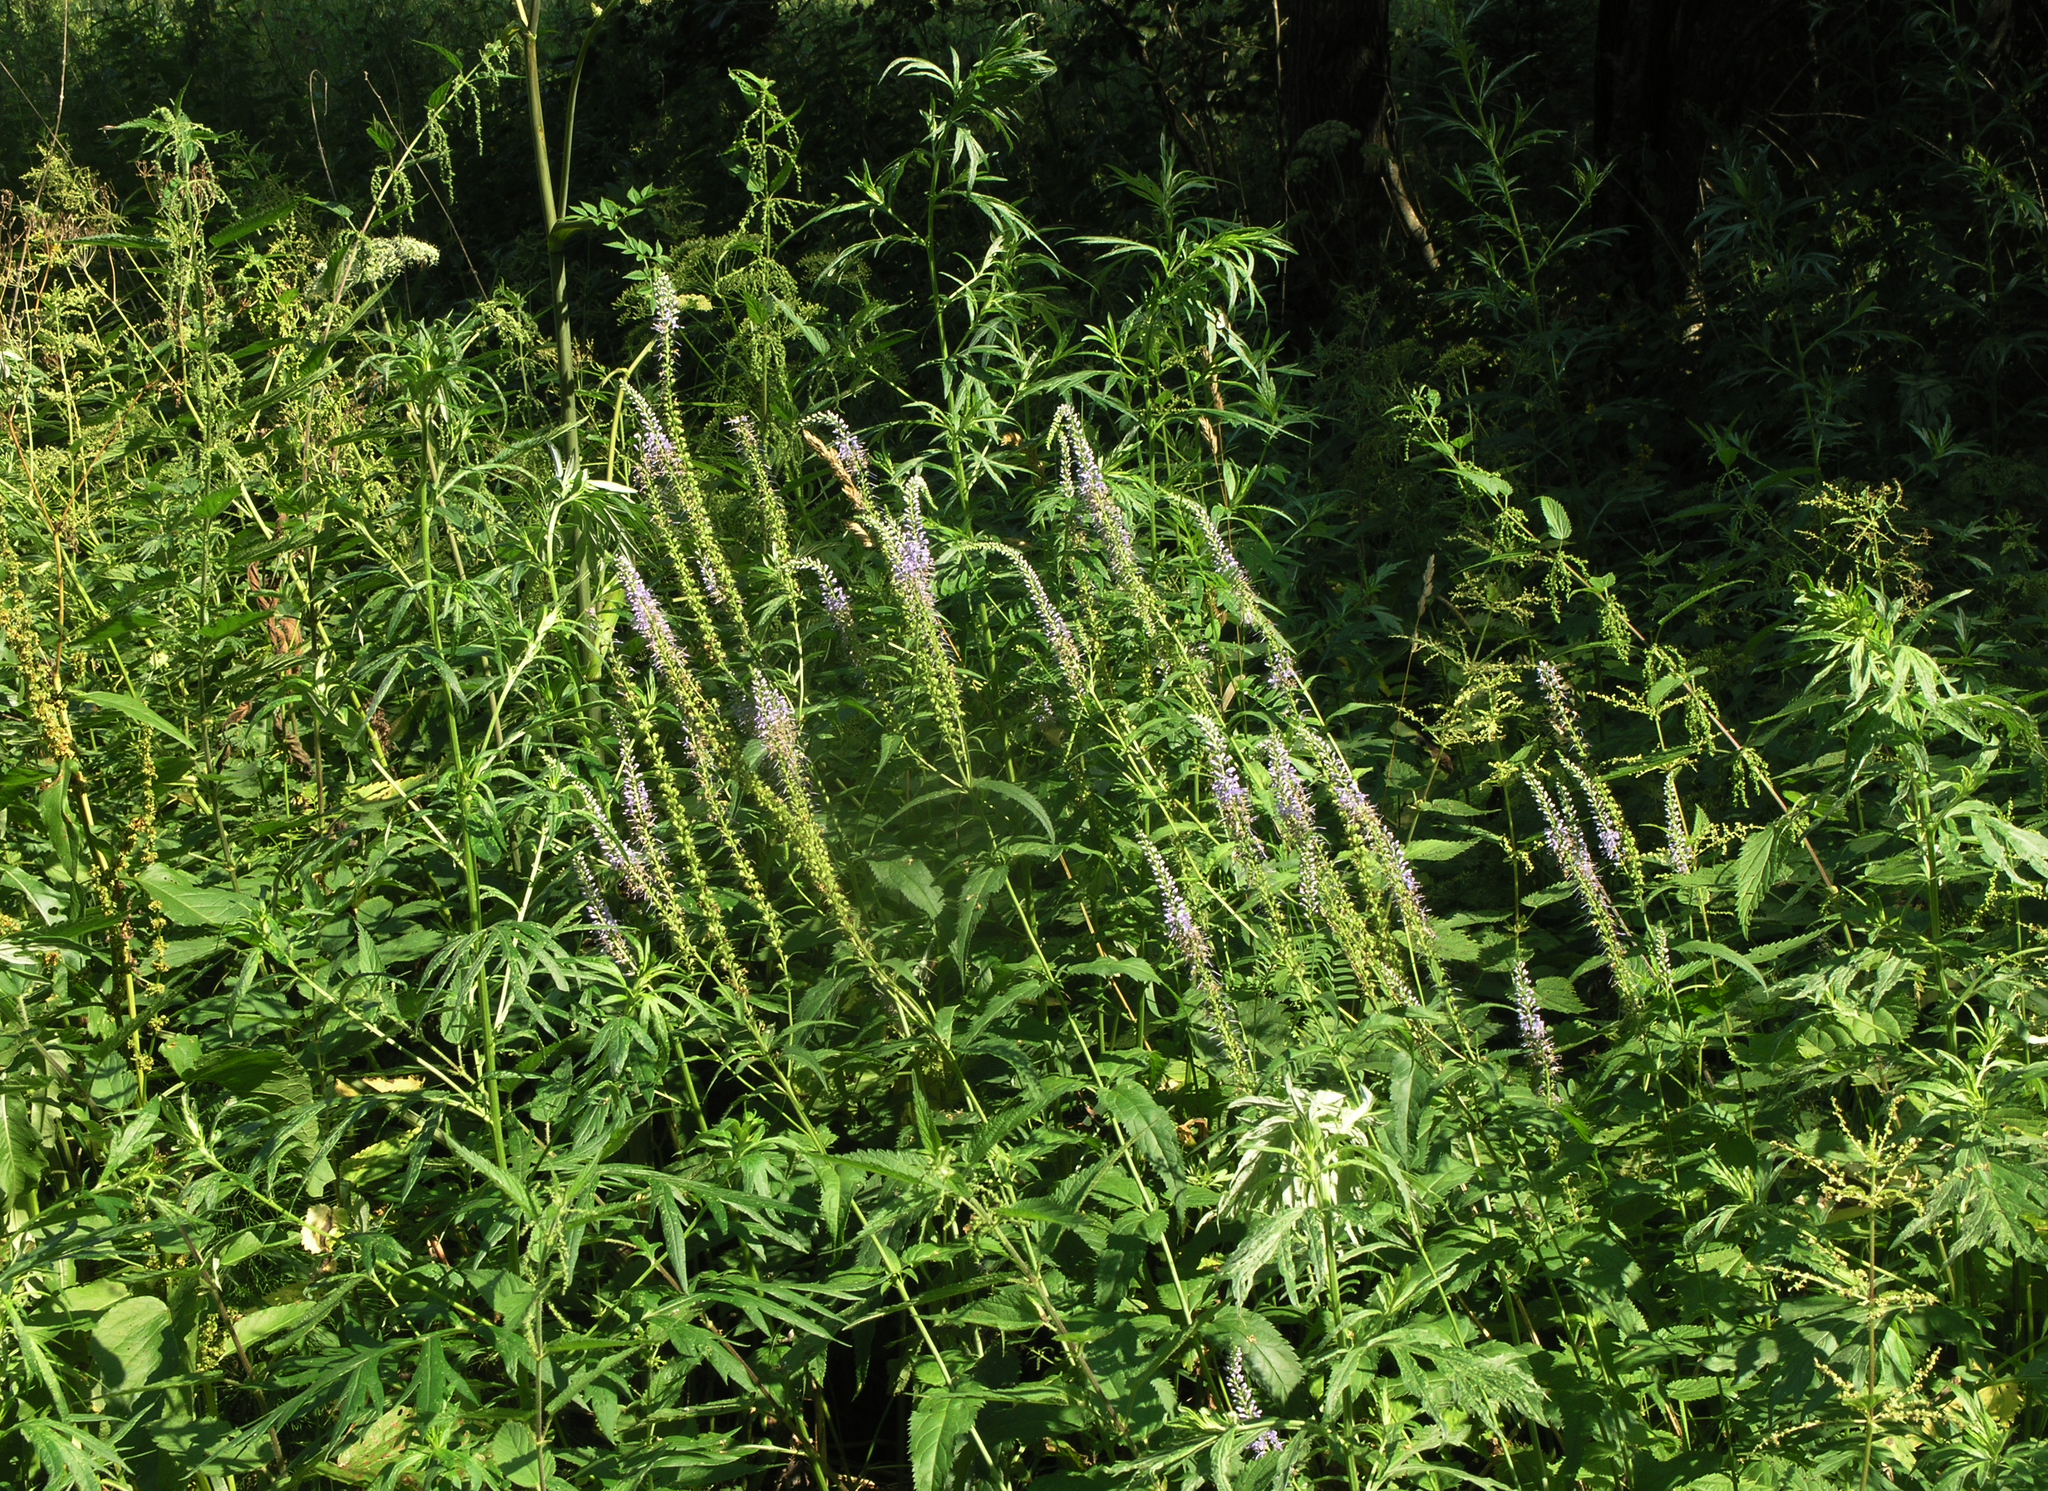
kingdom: Plantae
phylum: Tracheophyta
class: Magnoliopsida
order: Lamiales
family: Plantaginaceae
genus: Veronica
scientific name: Veronica longifolia
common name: Garden speedwell
